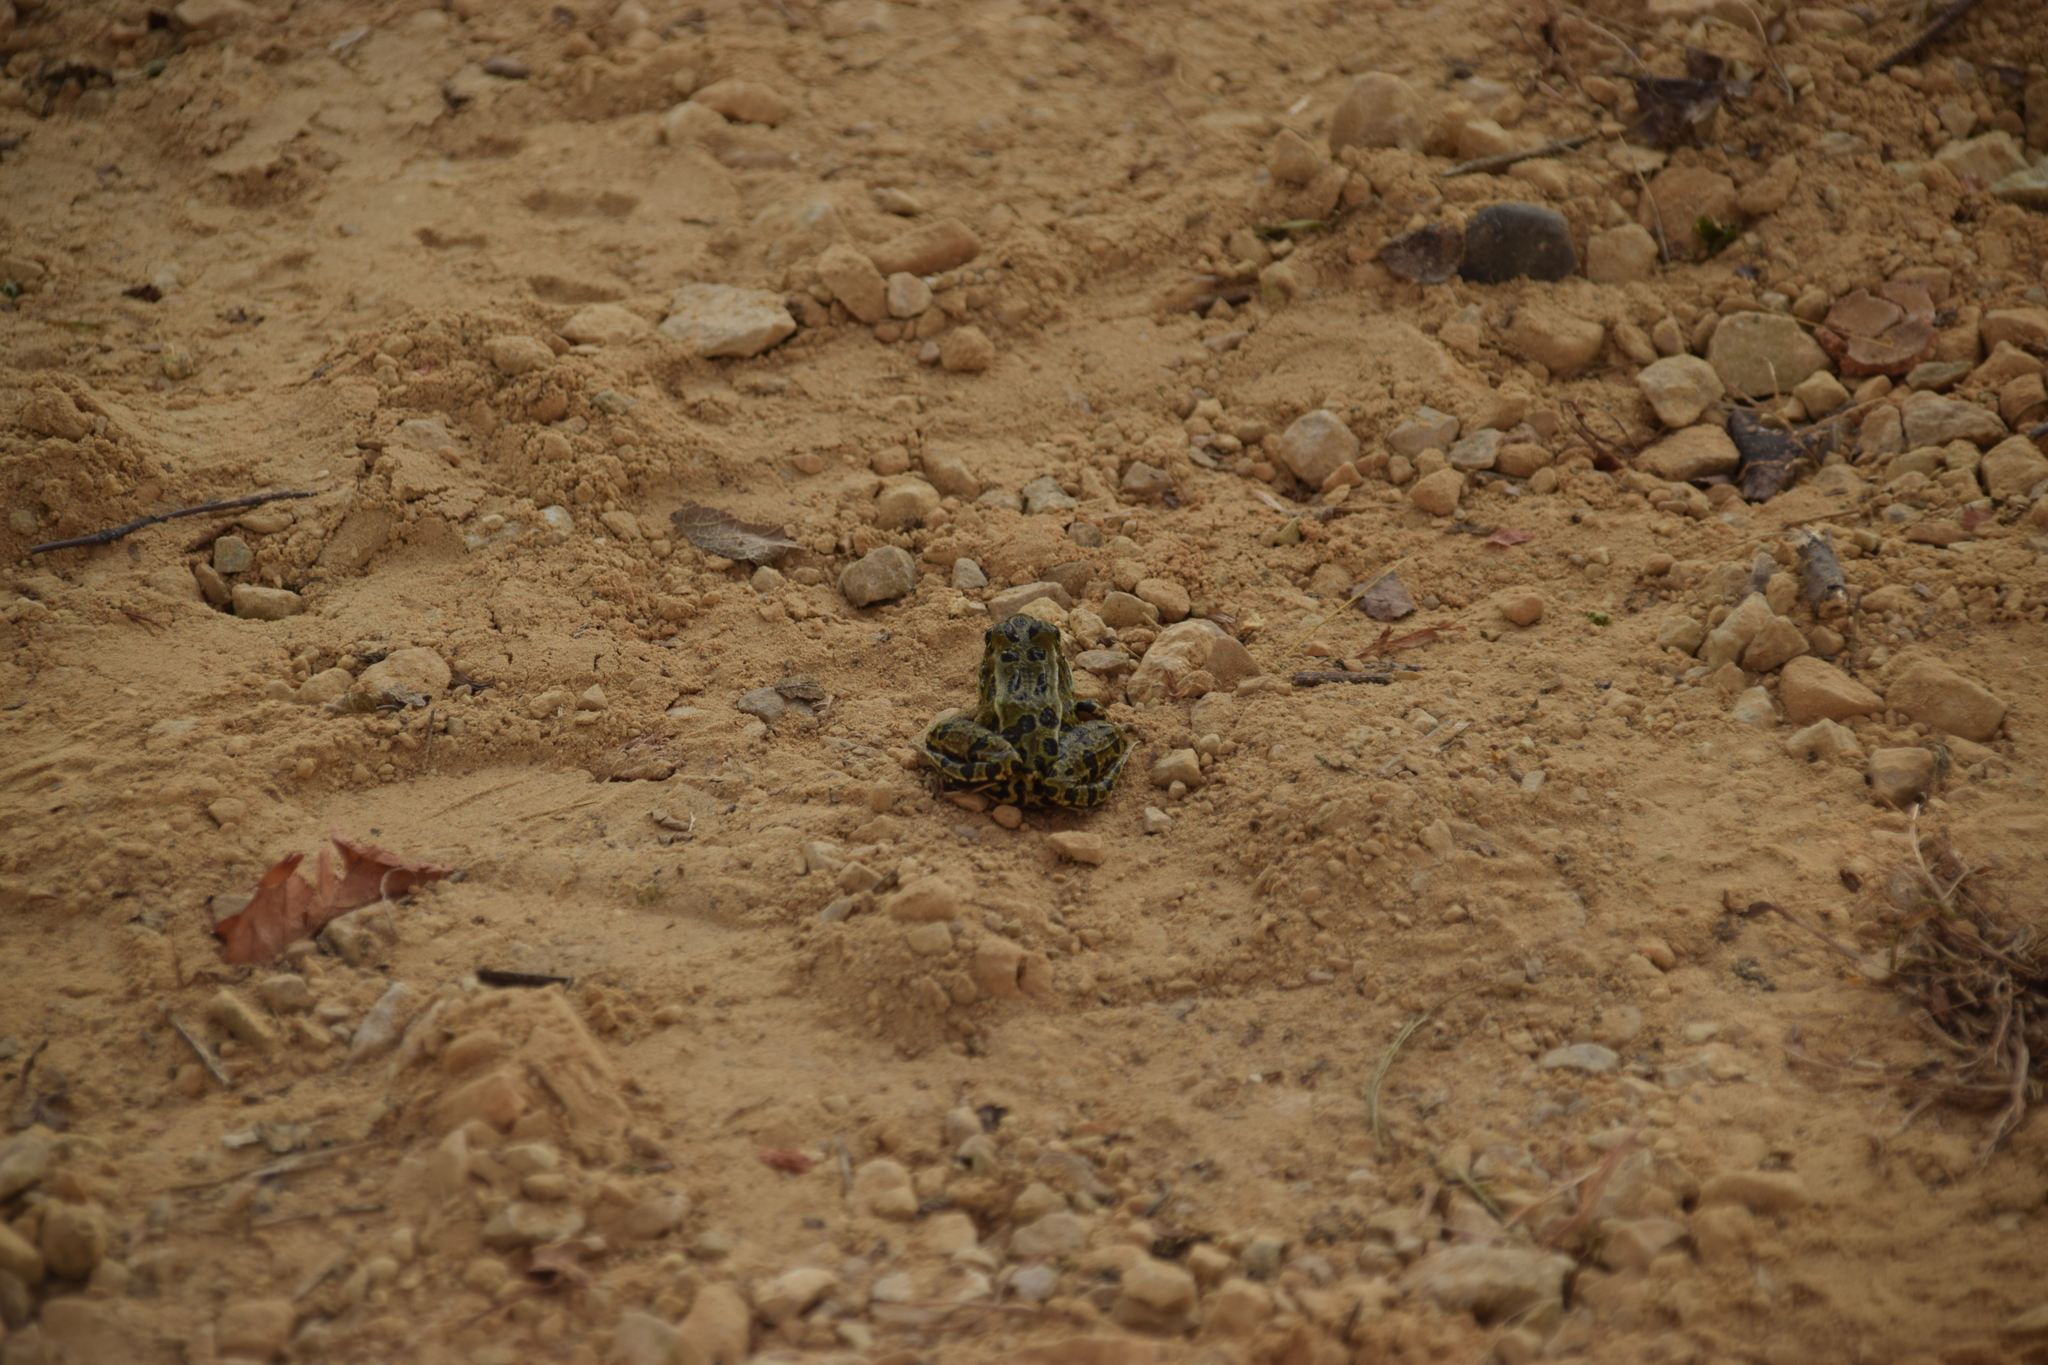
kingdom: Animalia
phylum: Chordata
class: Amphibia
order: Anura
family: Ranidae
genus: Lithobates
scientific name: Lithobates pipiens
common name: Northern leopard frog
